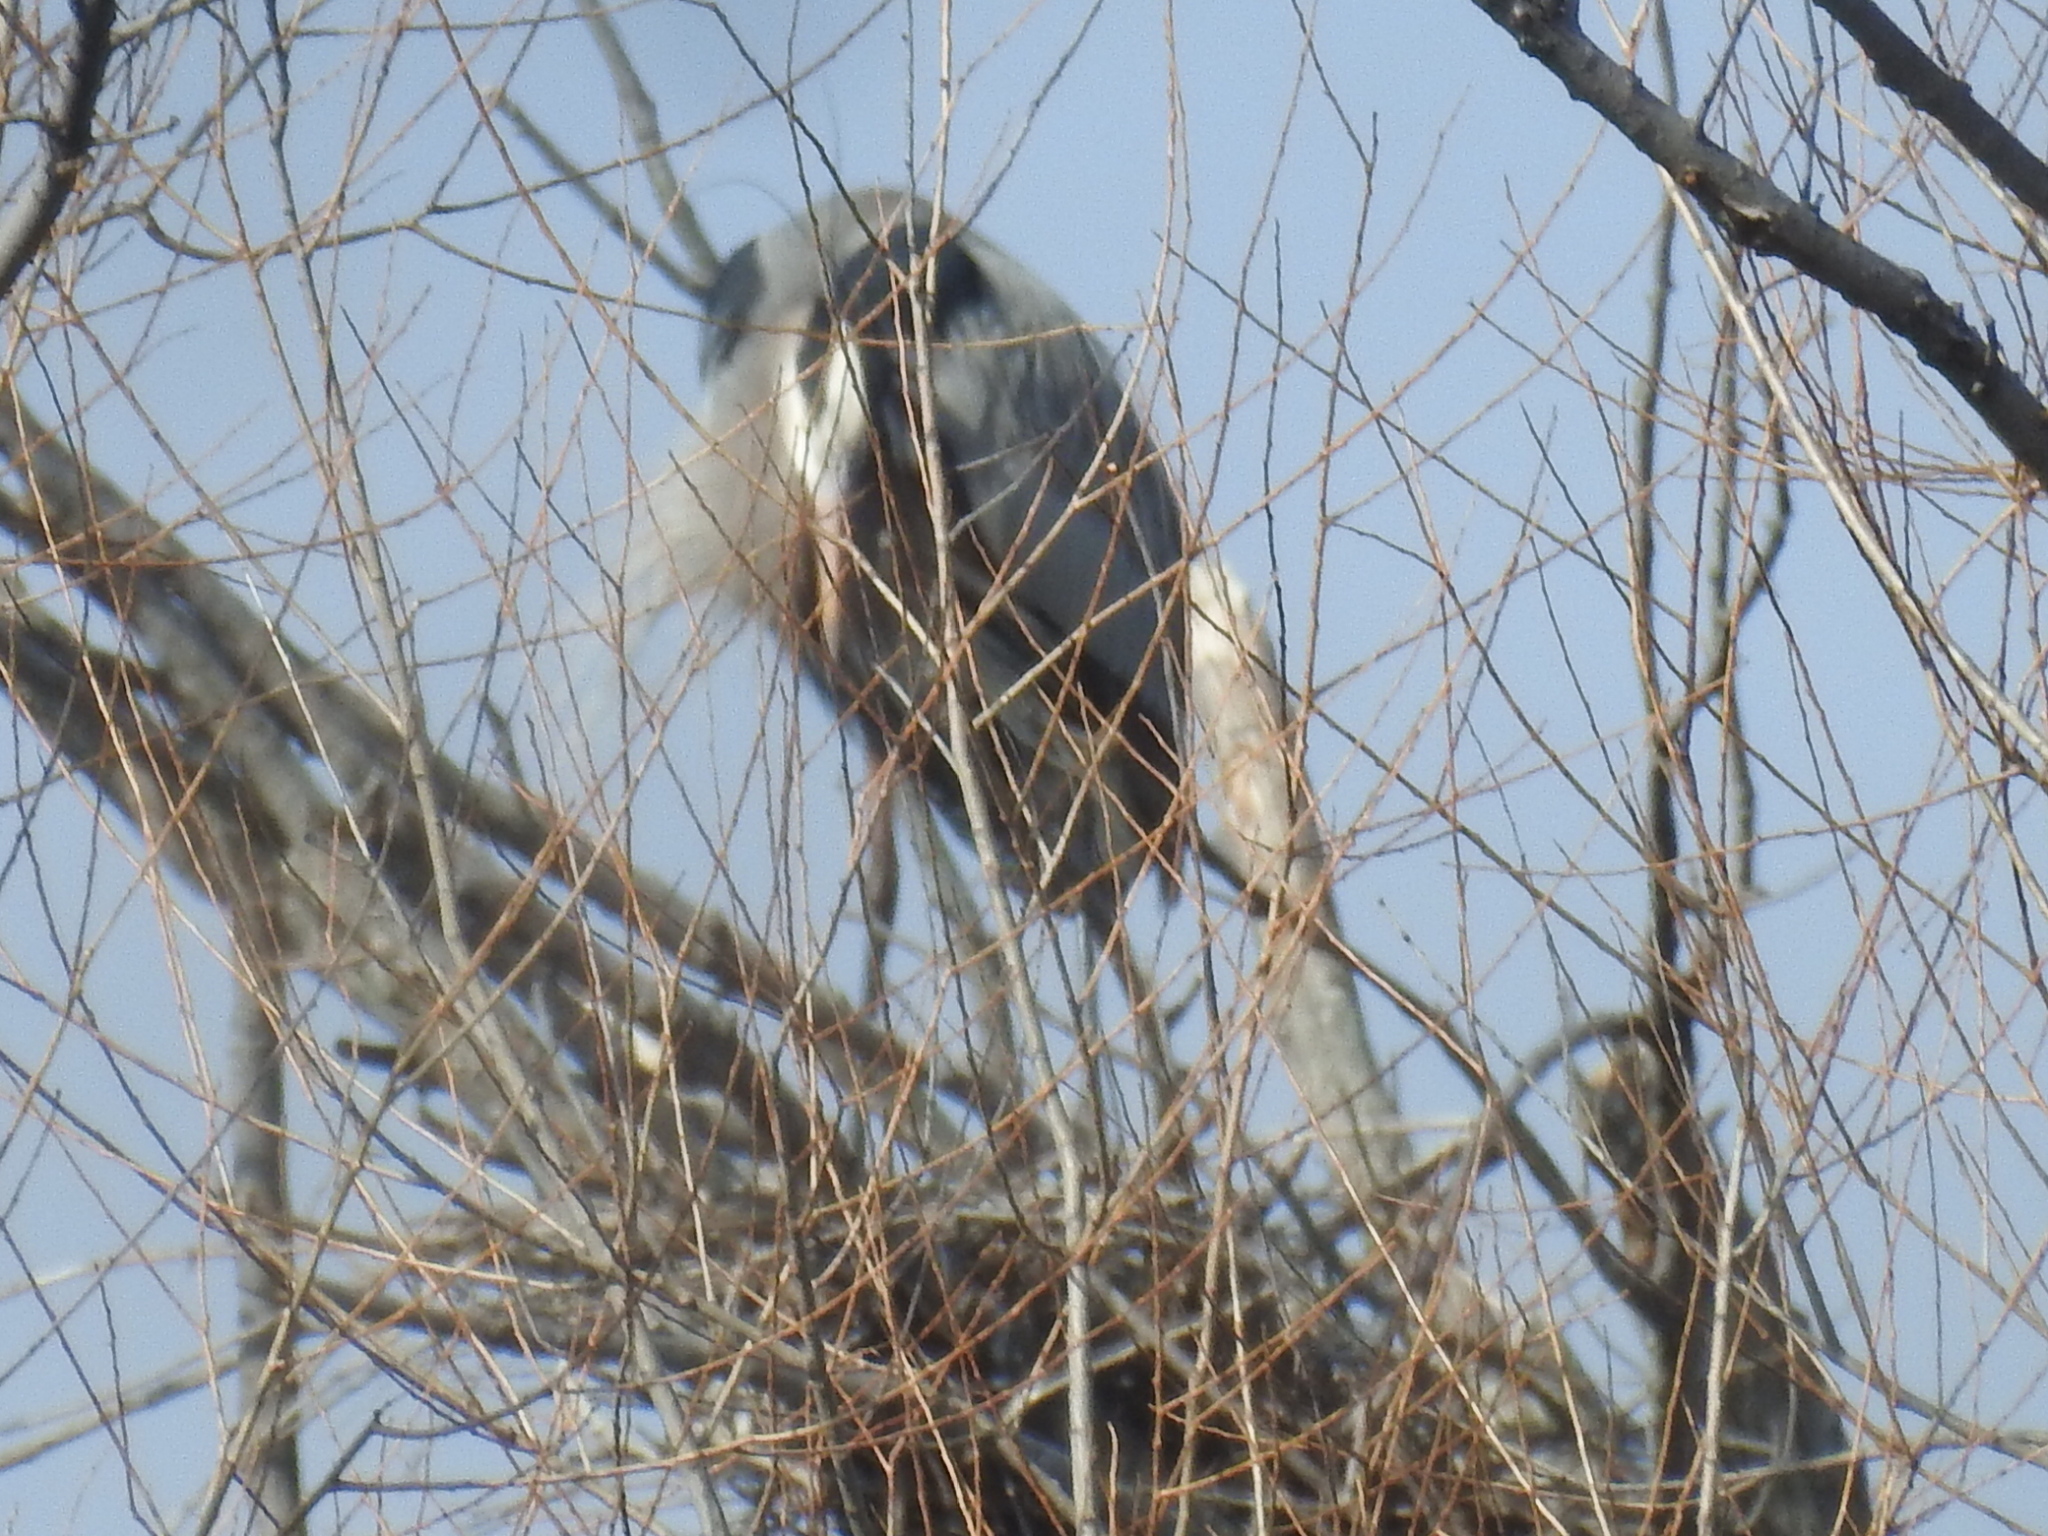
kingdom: Animalia
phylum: Chordata
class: Aves
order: Pelecaniformes
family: Ardeidae
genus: Ardea
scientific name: Ardea herodias
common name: Great blue heron
